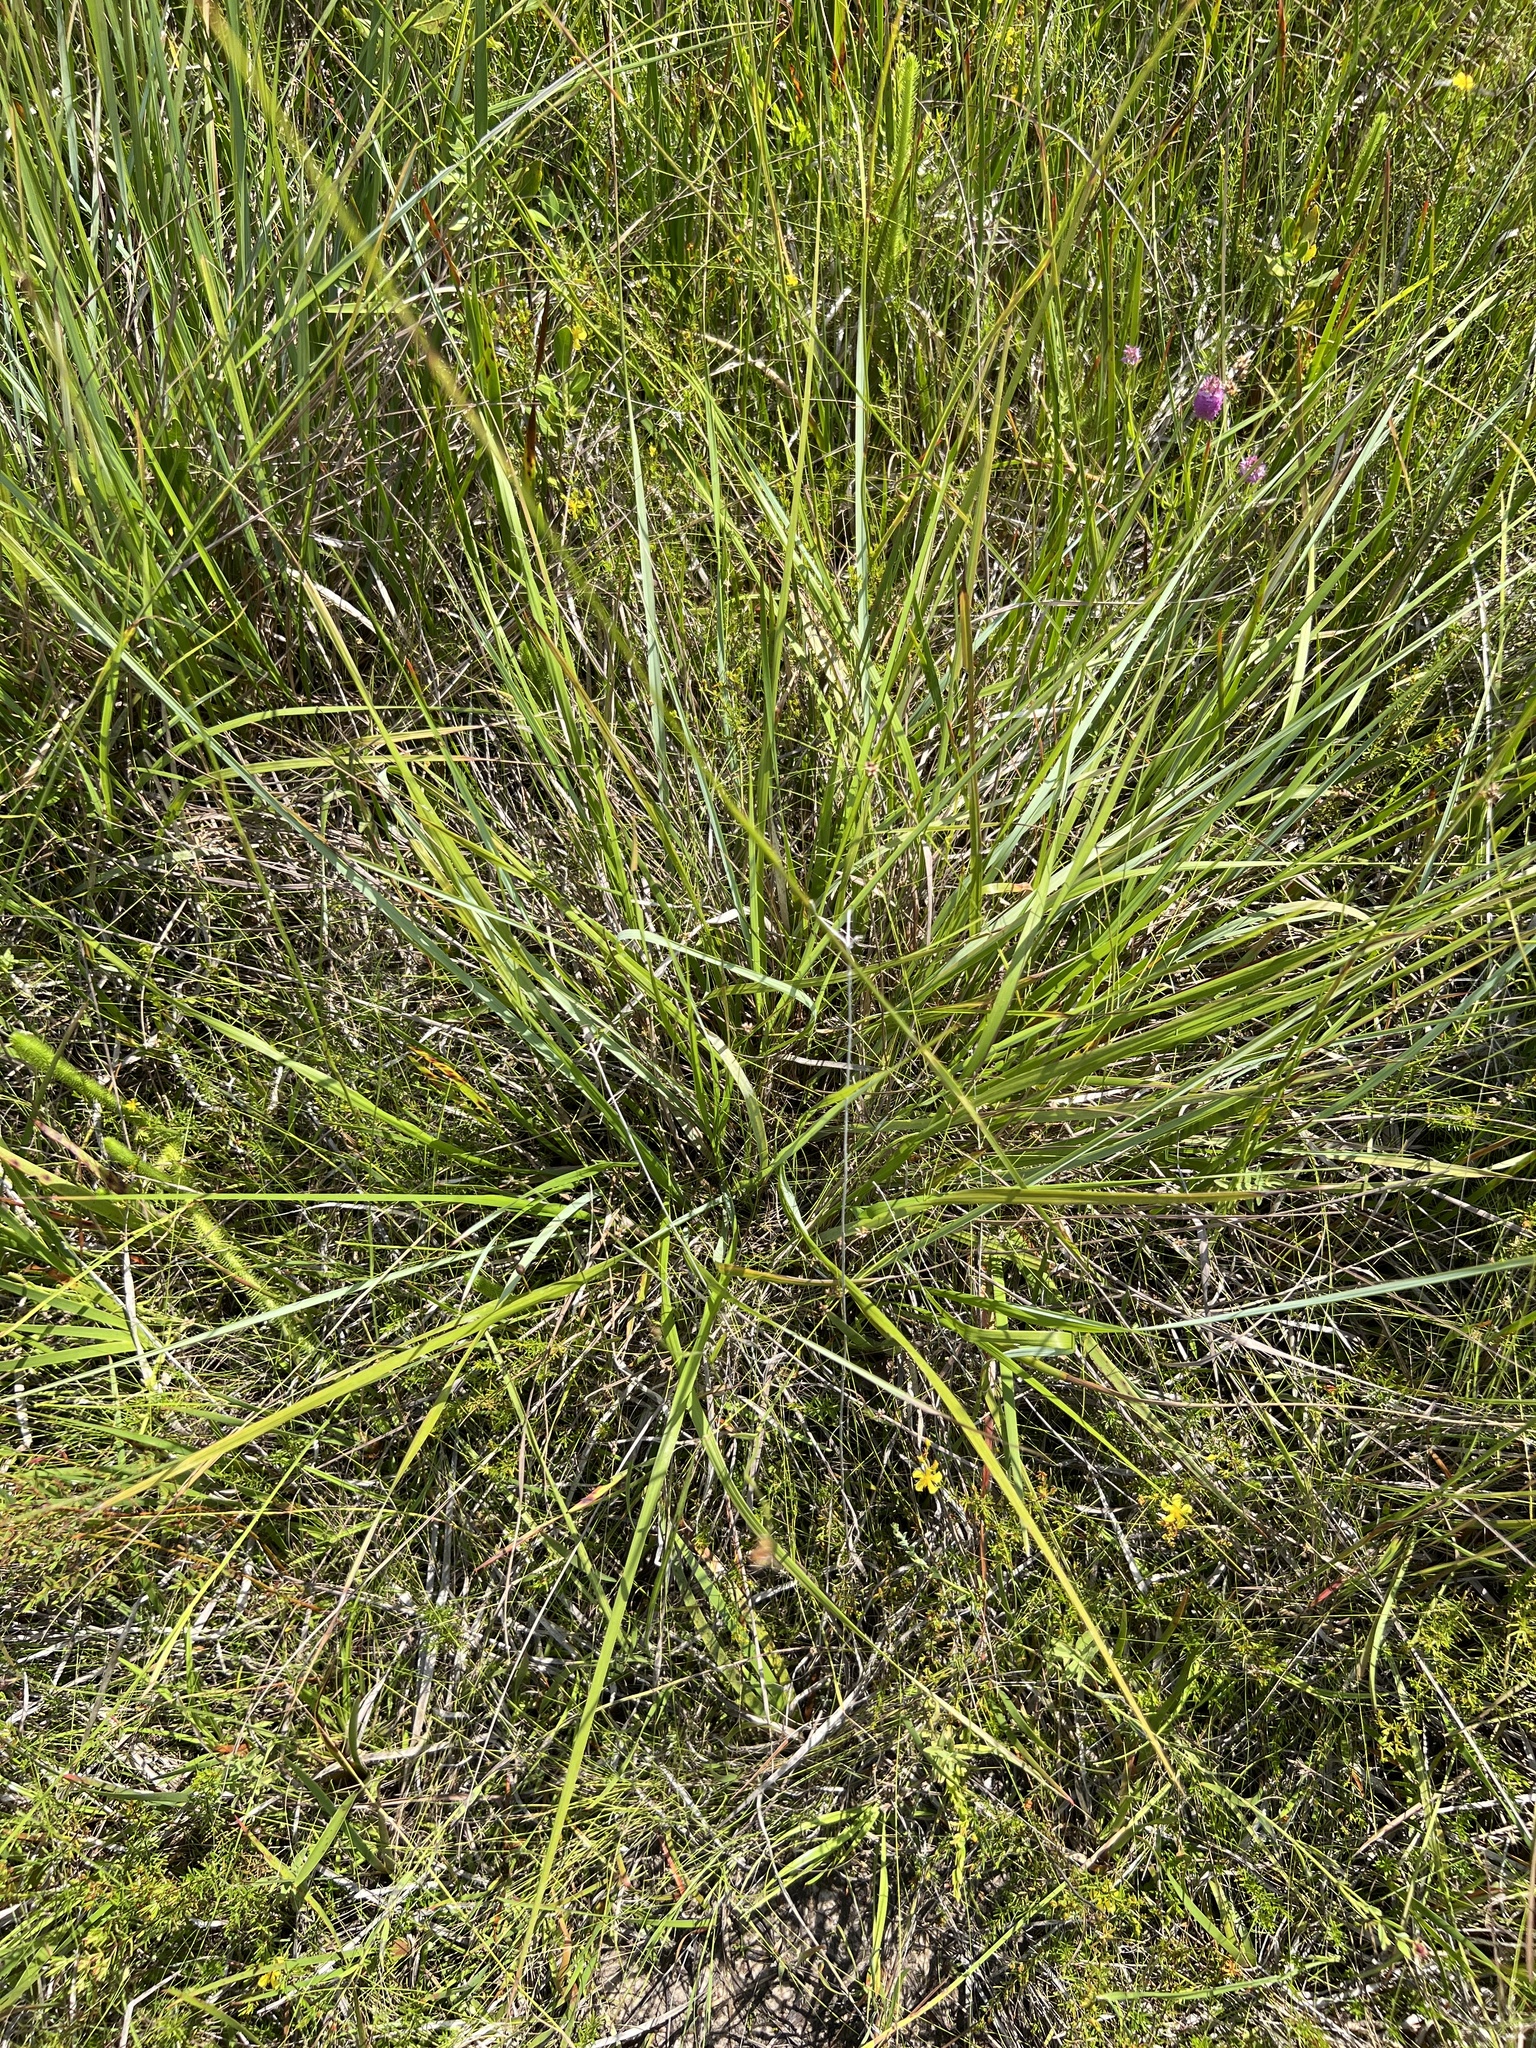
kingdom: Plantae
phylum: Tracheophyta
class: Liliopsida
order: Poales
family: Poaceae
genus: Ctenium
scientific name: Ctenium aromaticum
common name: Toothache grass
